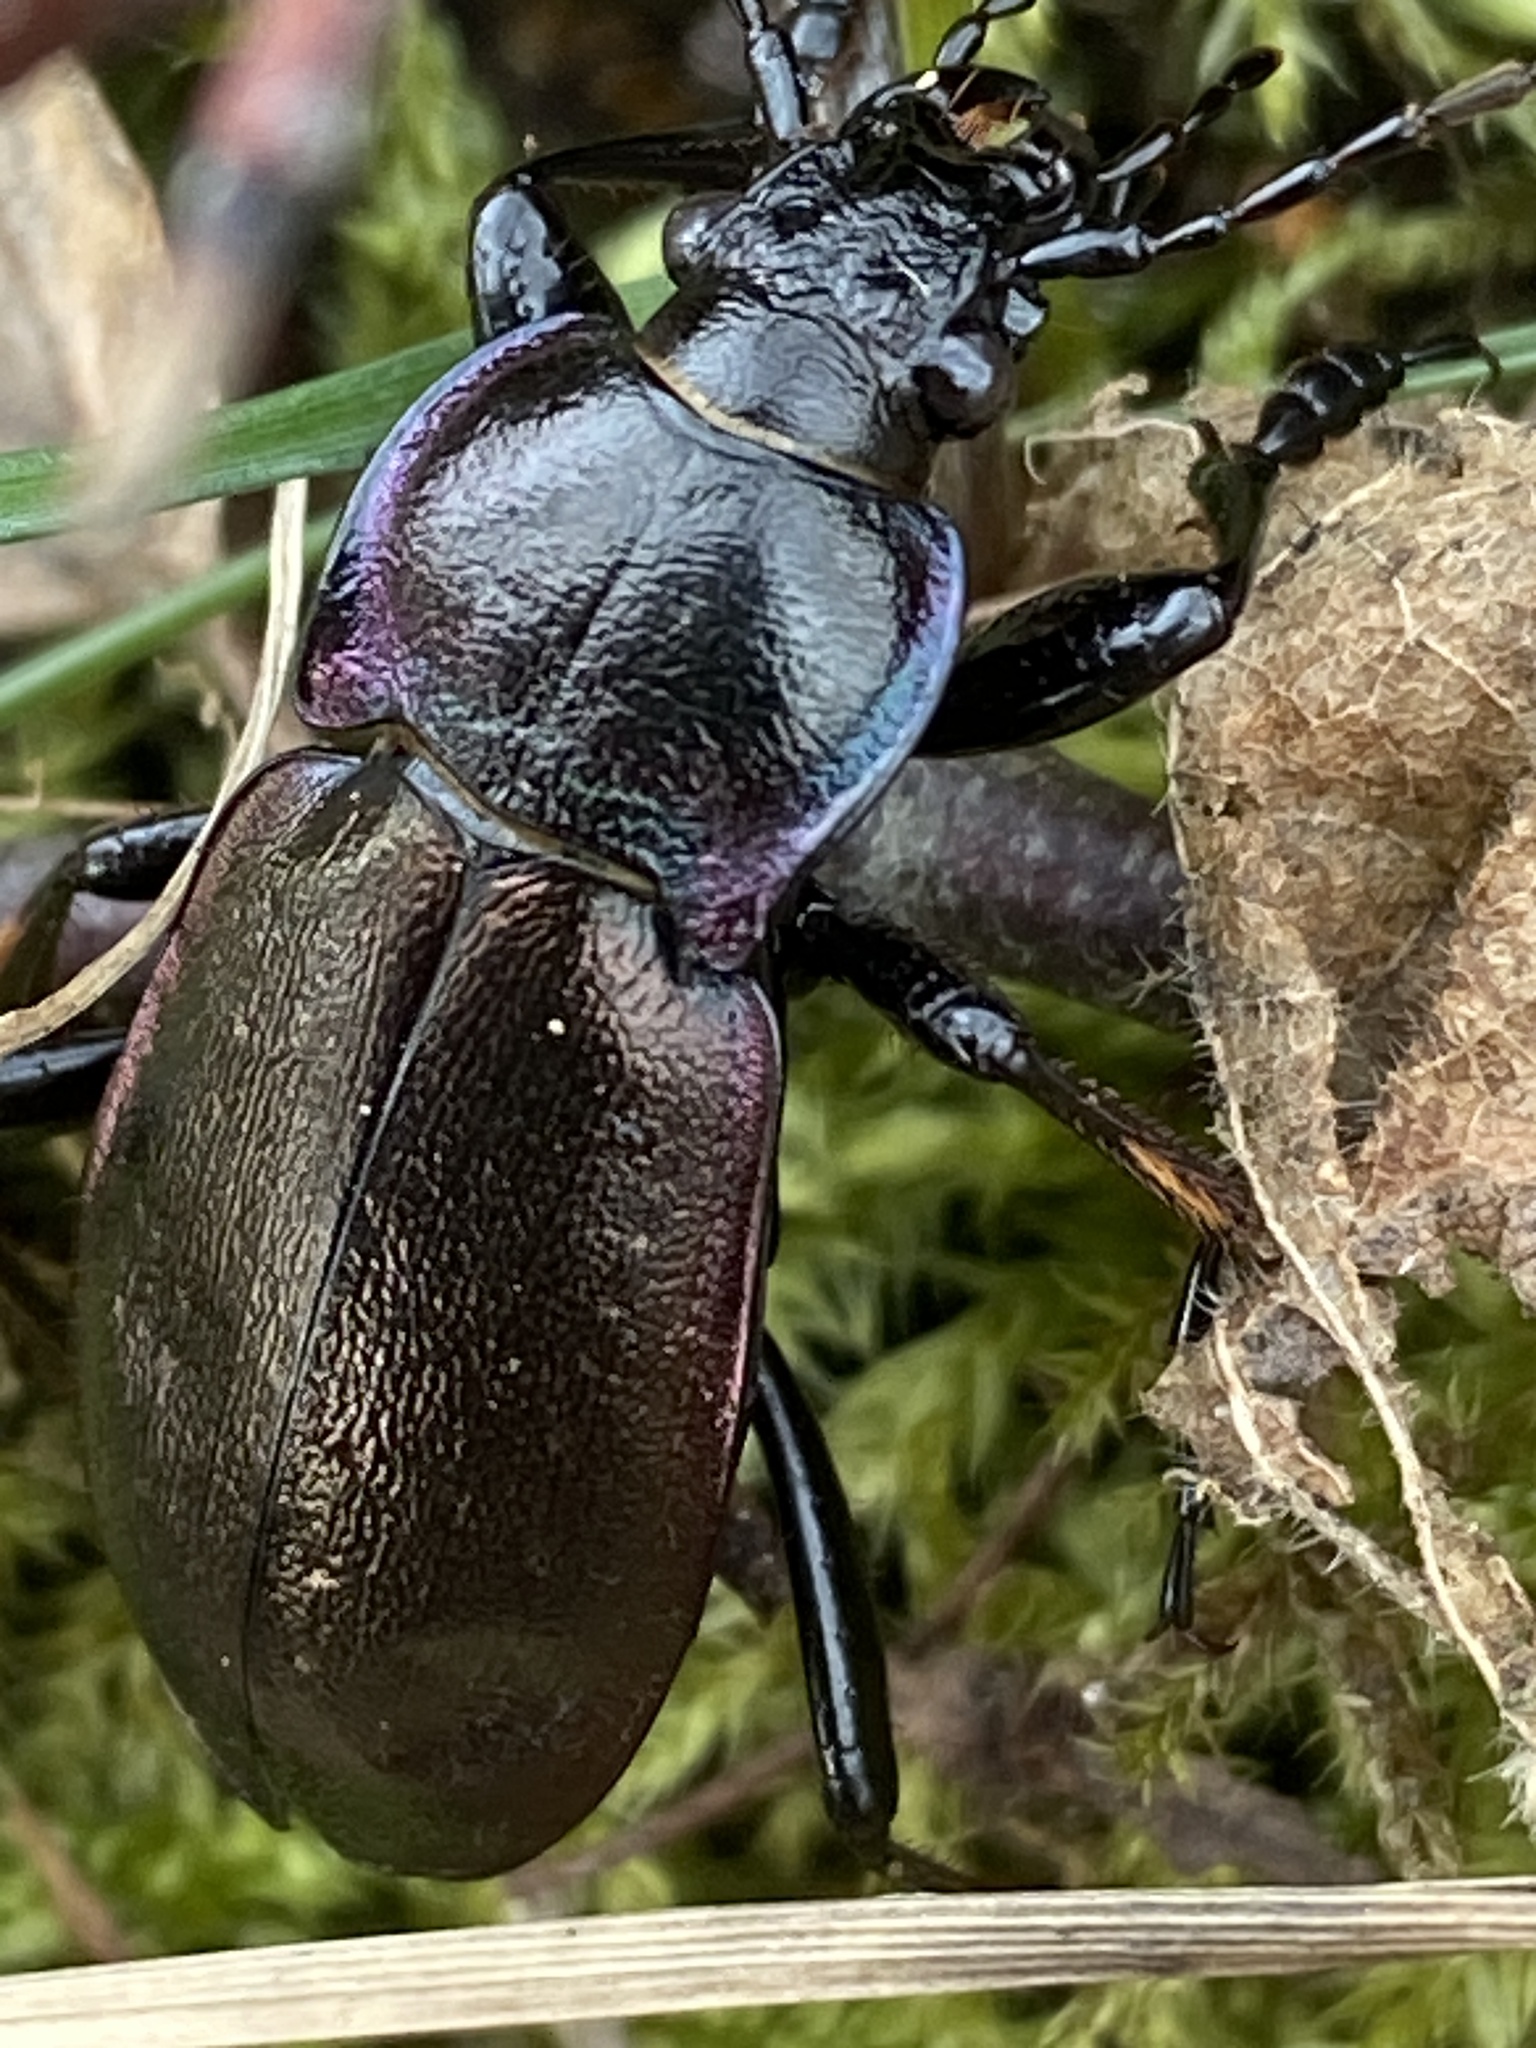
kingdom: Animalia
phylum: Arthropoda
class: Insecta
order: Coleoptera
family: Carabidae
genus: Carabus
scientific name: Carabus nemoralis
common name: European ground beetle
